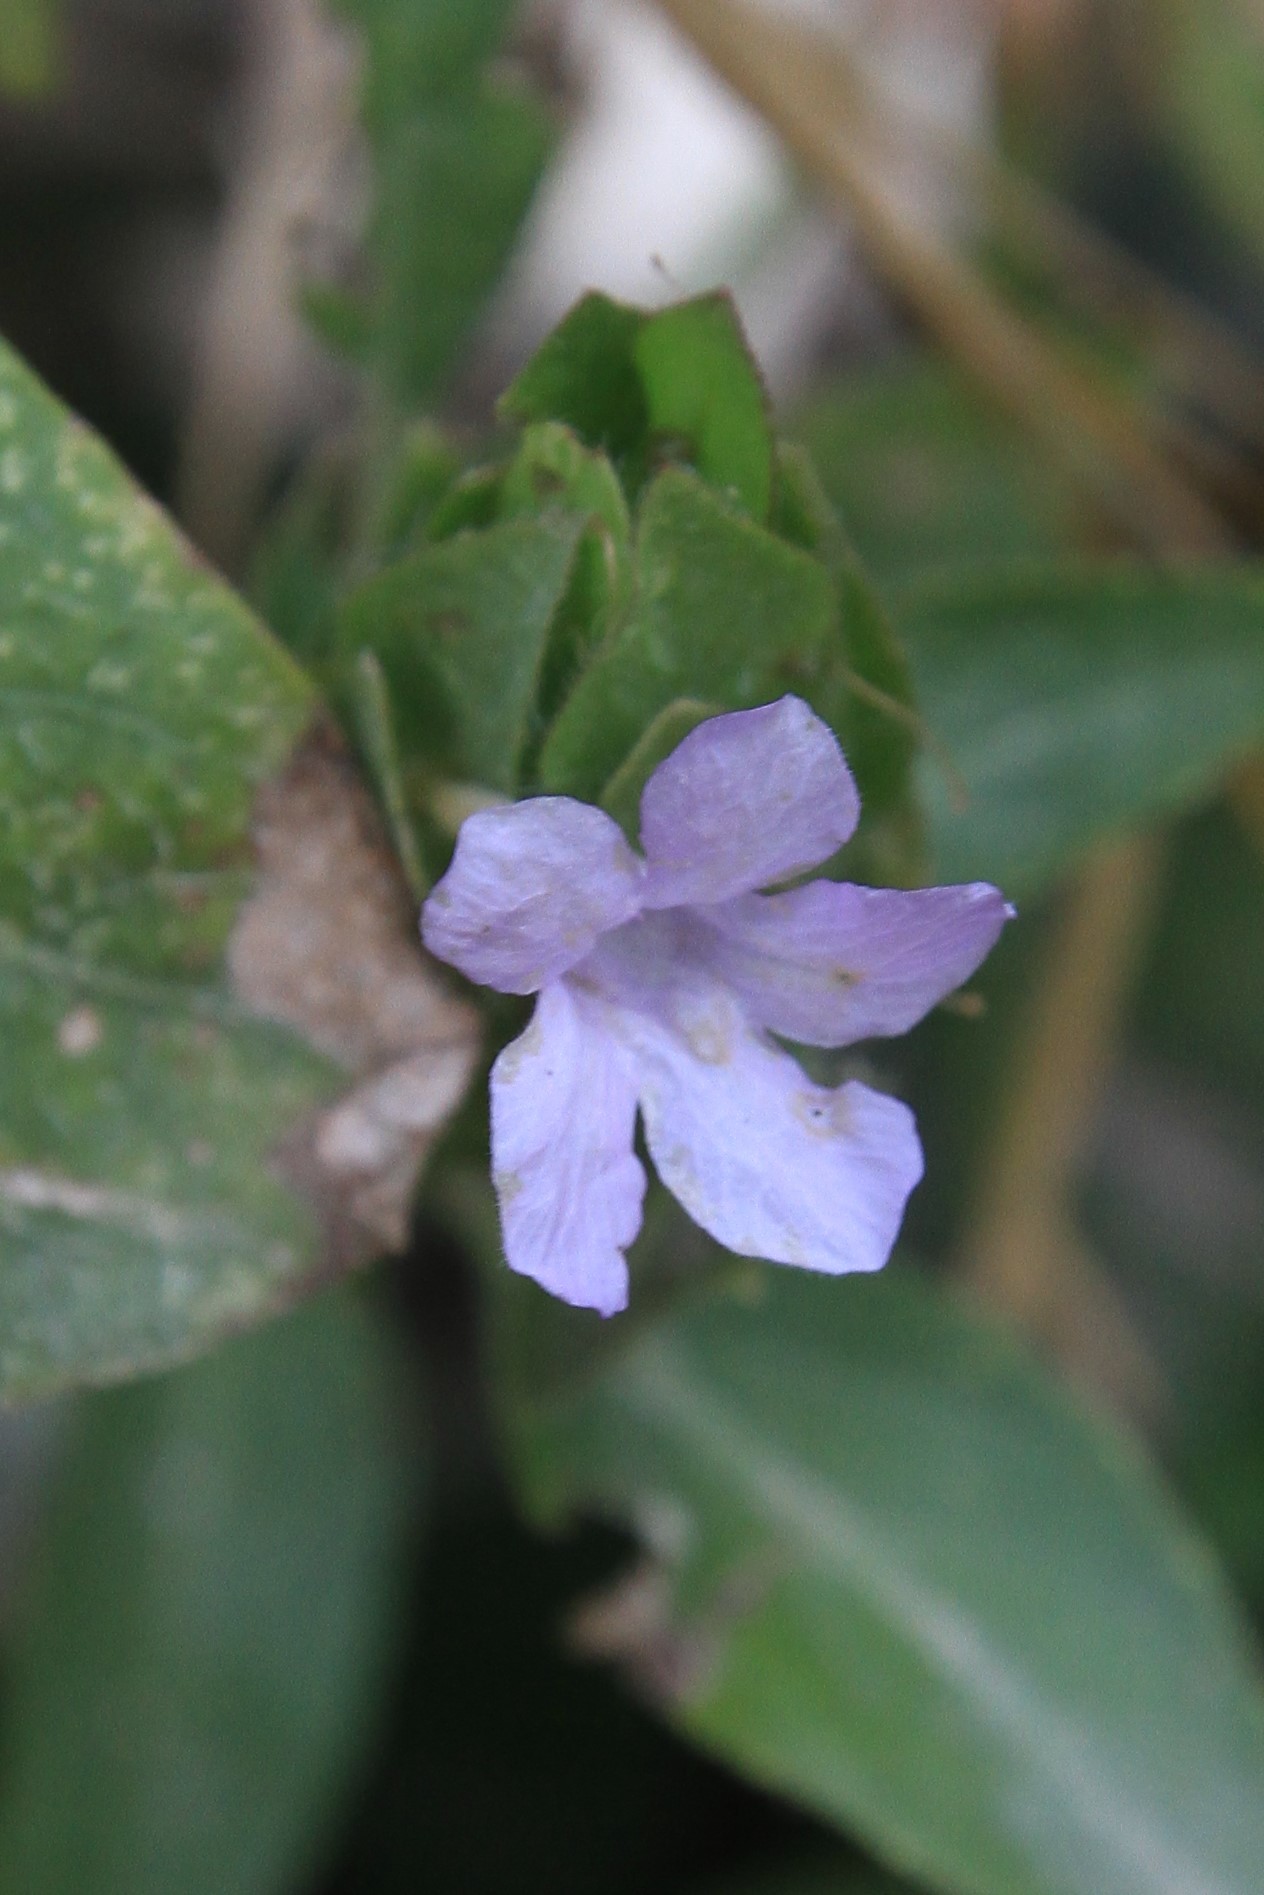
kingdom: Plantae
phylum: Tracheophyta
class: Magnoliopsida
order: Lamiales
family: Acanthaceae
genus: Ruellia
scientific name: Ruellia blechum
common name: Browne's blechum
